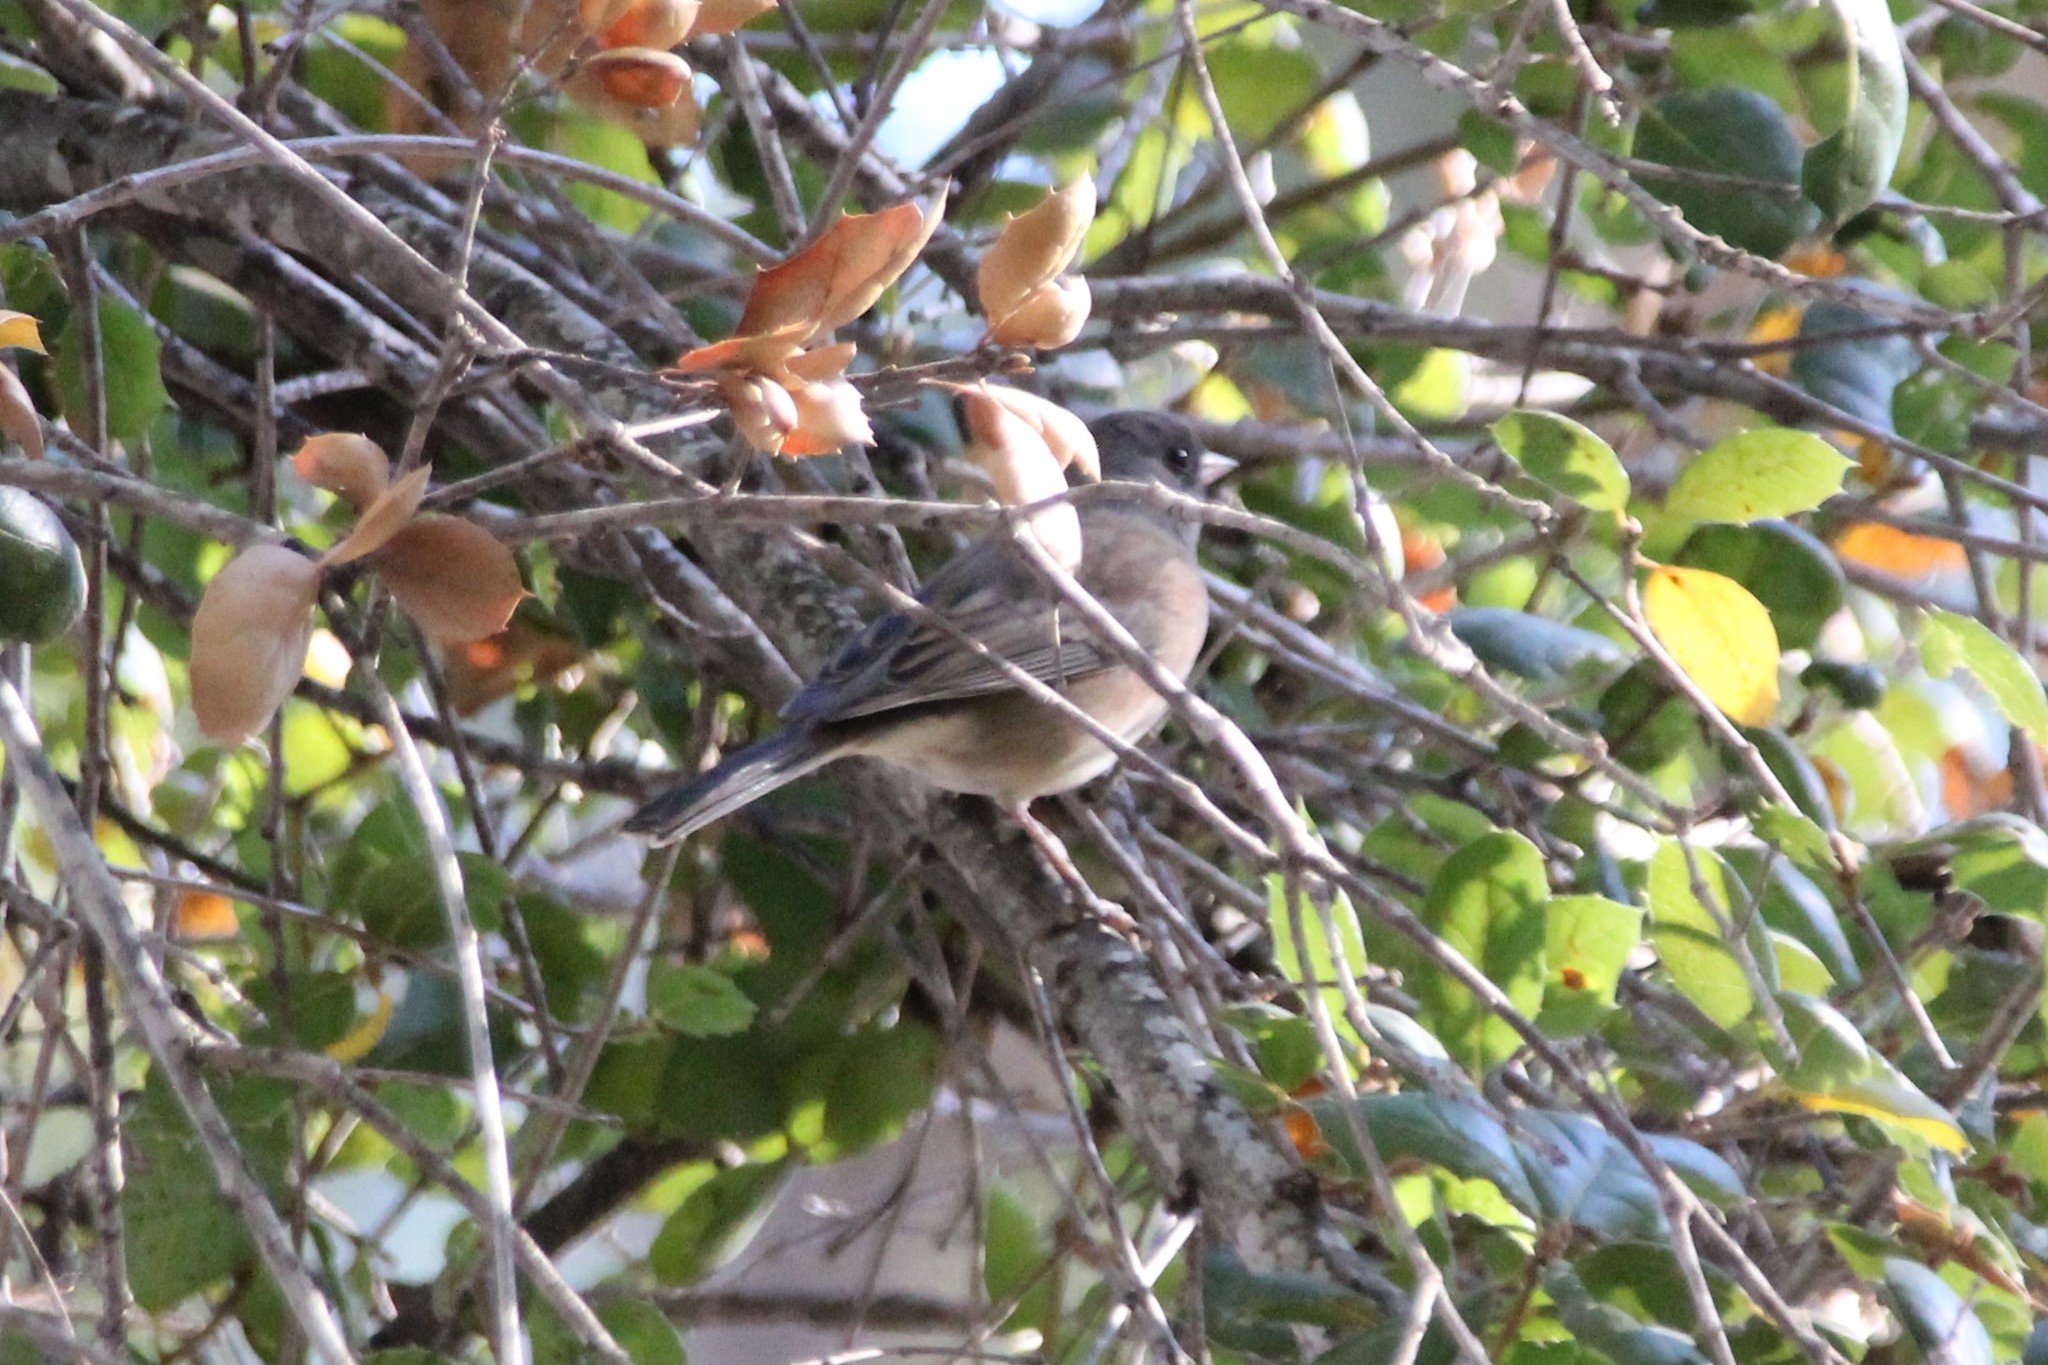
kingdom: Animalia
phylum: Chordata
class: Aves
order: Passeriformes
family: Passerellidae
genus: Junco
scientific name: Junco hyemalis
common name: Dark-eyed junco
